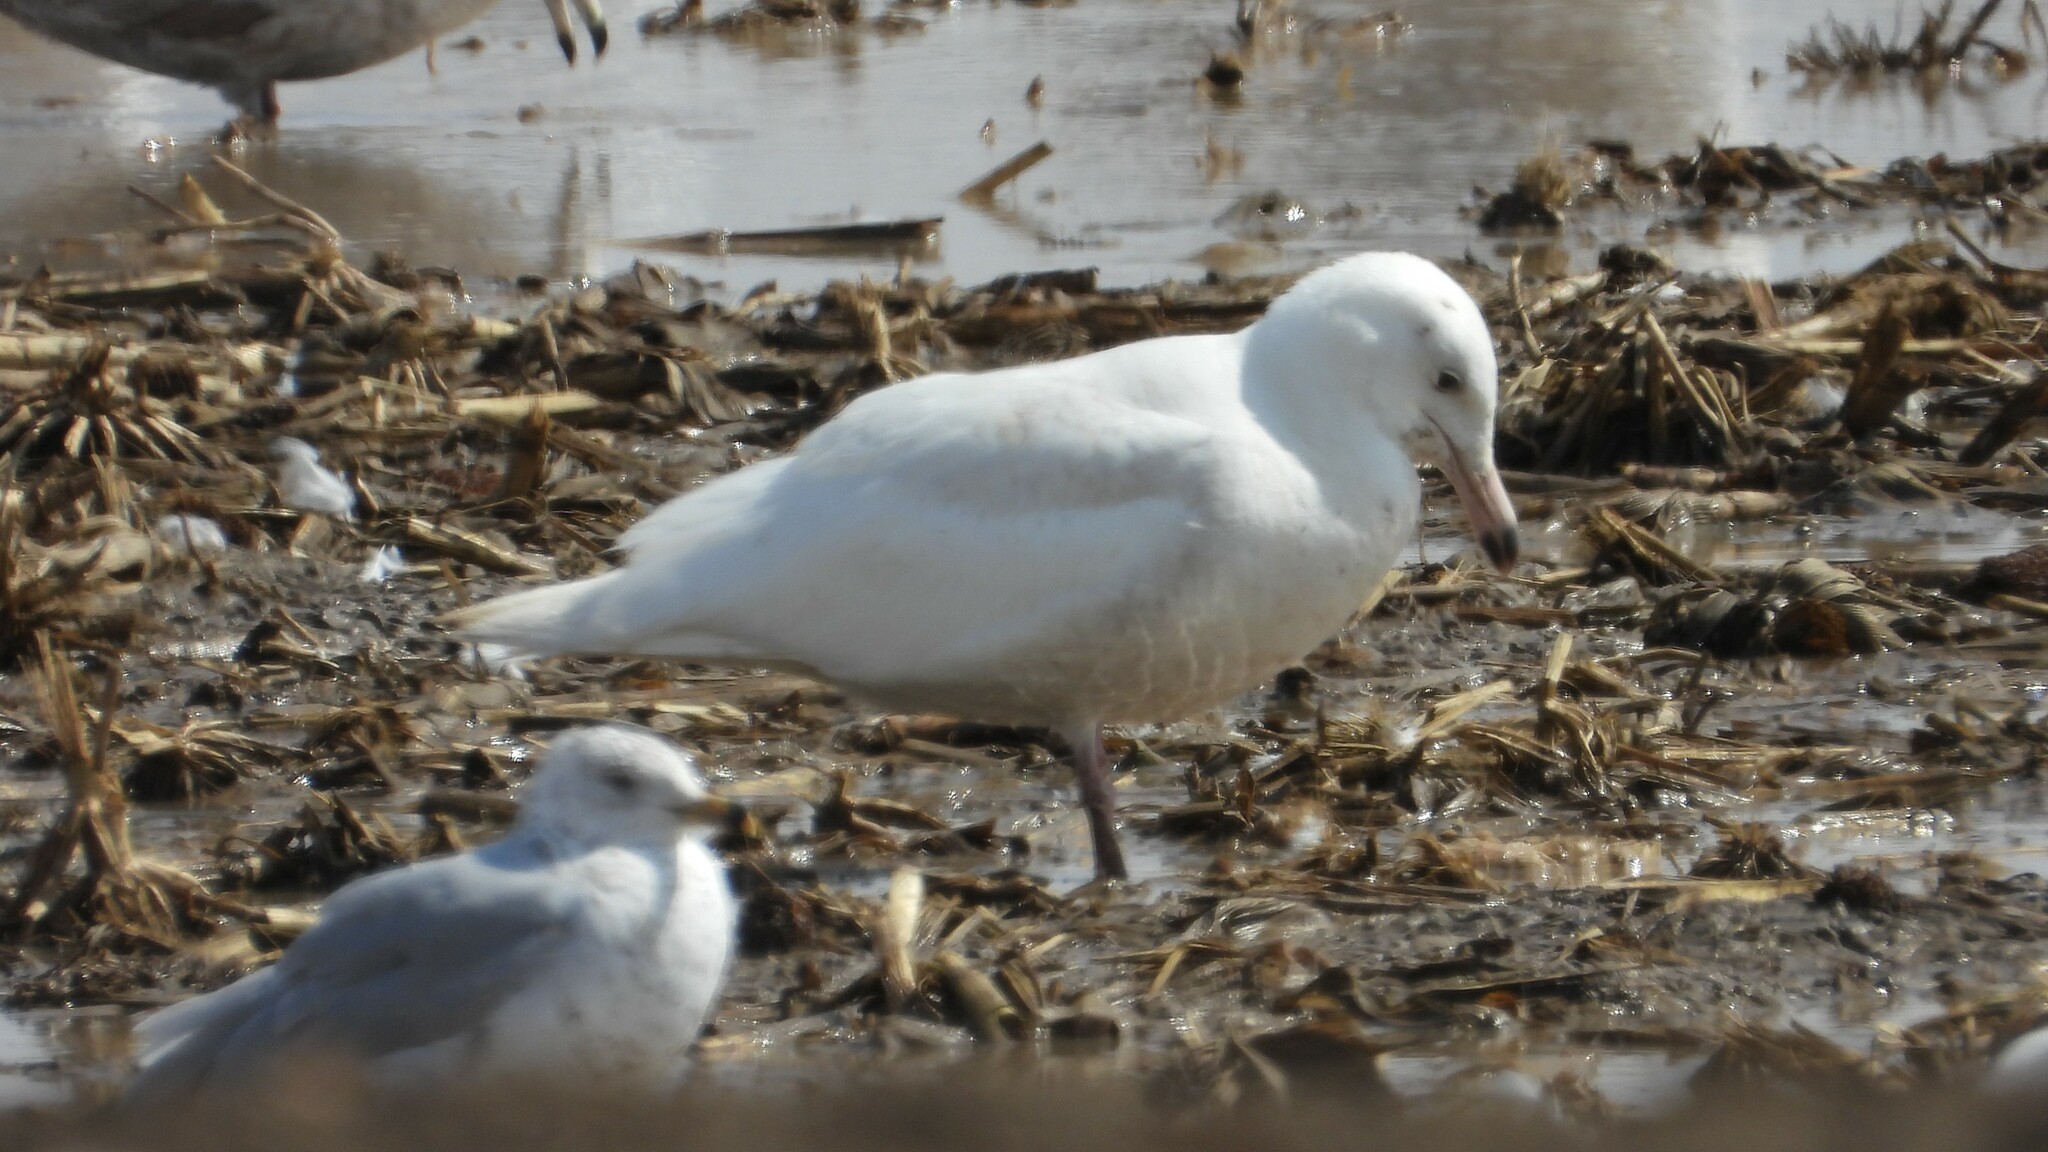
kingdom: Animalia
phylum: Chordata
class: Aves
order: Charadriiformes
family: Laridae
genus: Larus
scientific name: Larus hyperboreus
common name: Glaucous gull
